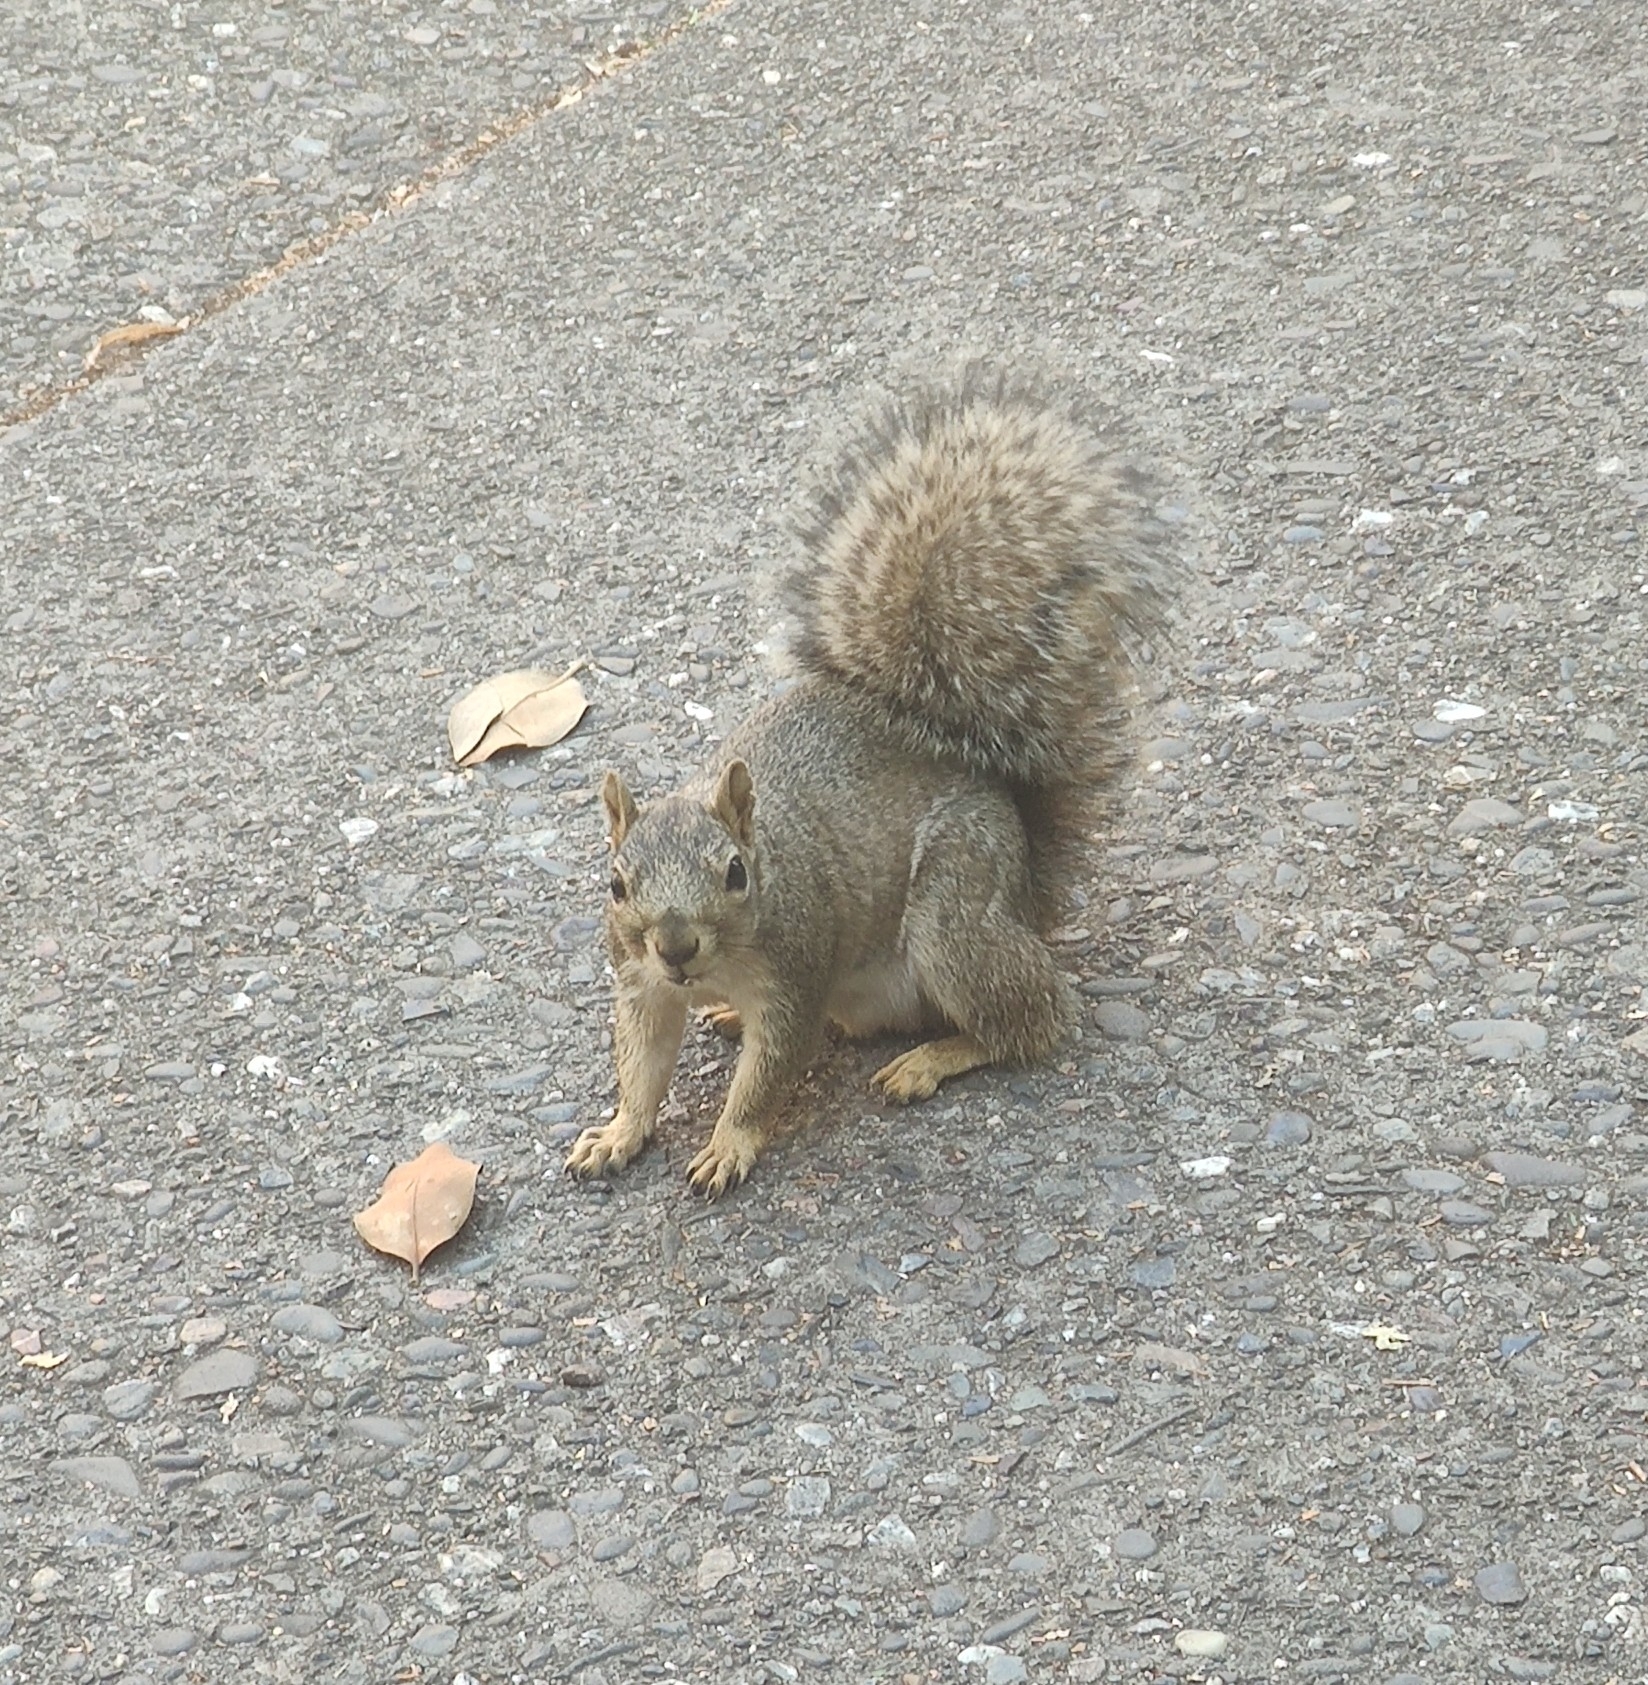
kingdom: Animalia
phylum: Chordata
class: Mammalia
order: Rodentia
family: Sciuridae
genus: Sciurus
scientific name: Sciurus niger
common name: Fox squirrel
